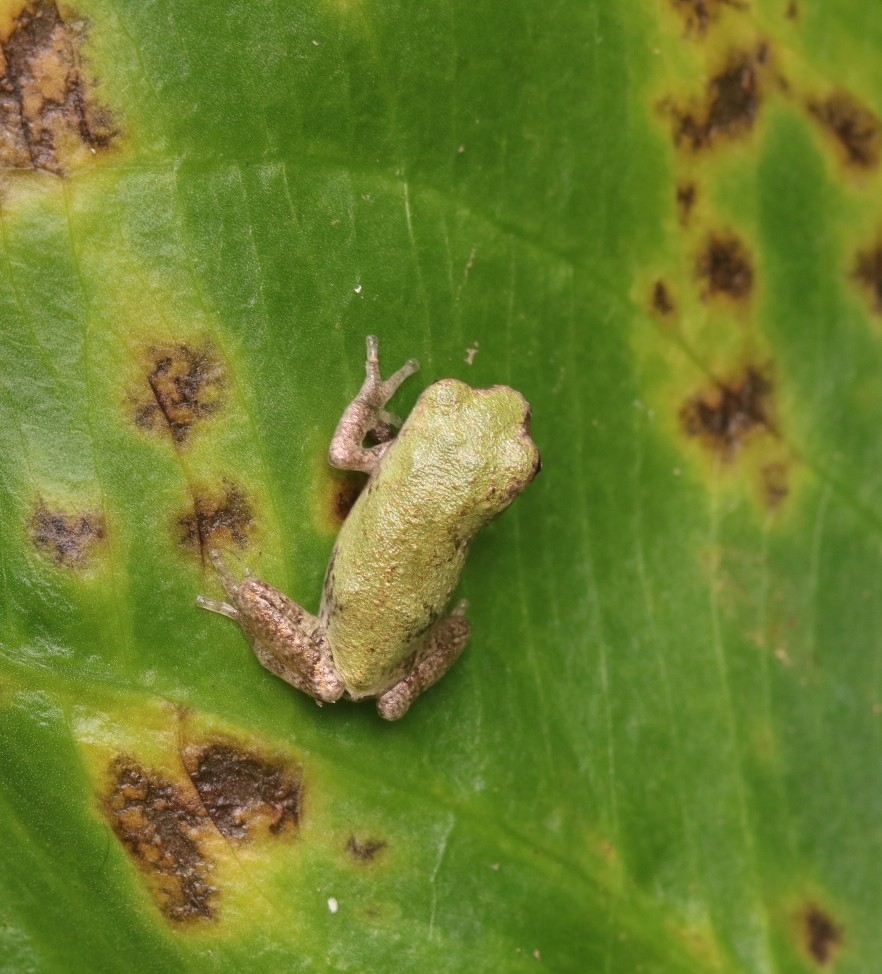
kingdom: Animalia
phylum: Chordata
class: Amphibia
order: Anura
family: Hylidae
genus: Hyla
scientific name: Hyla
